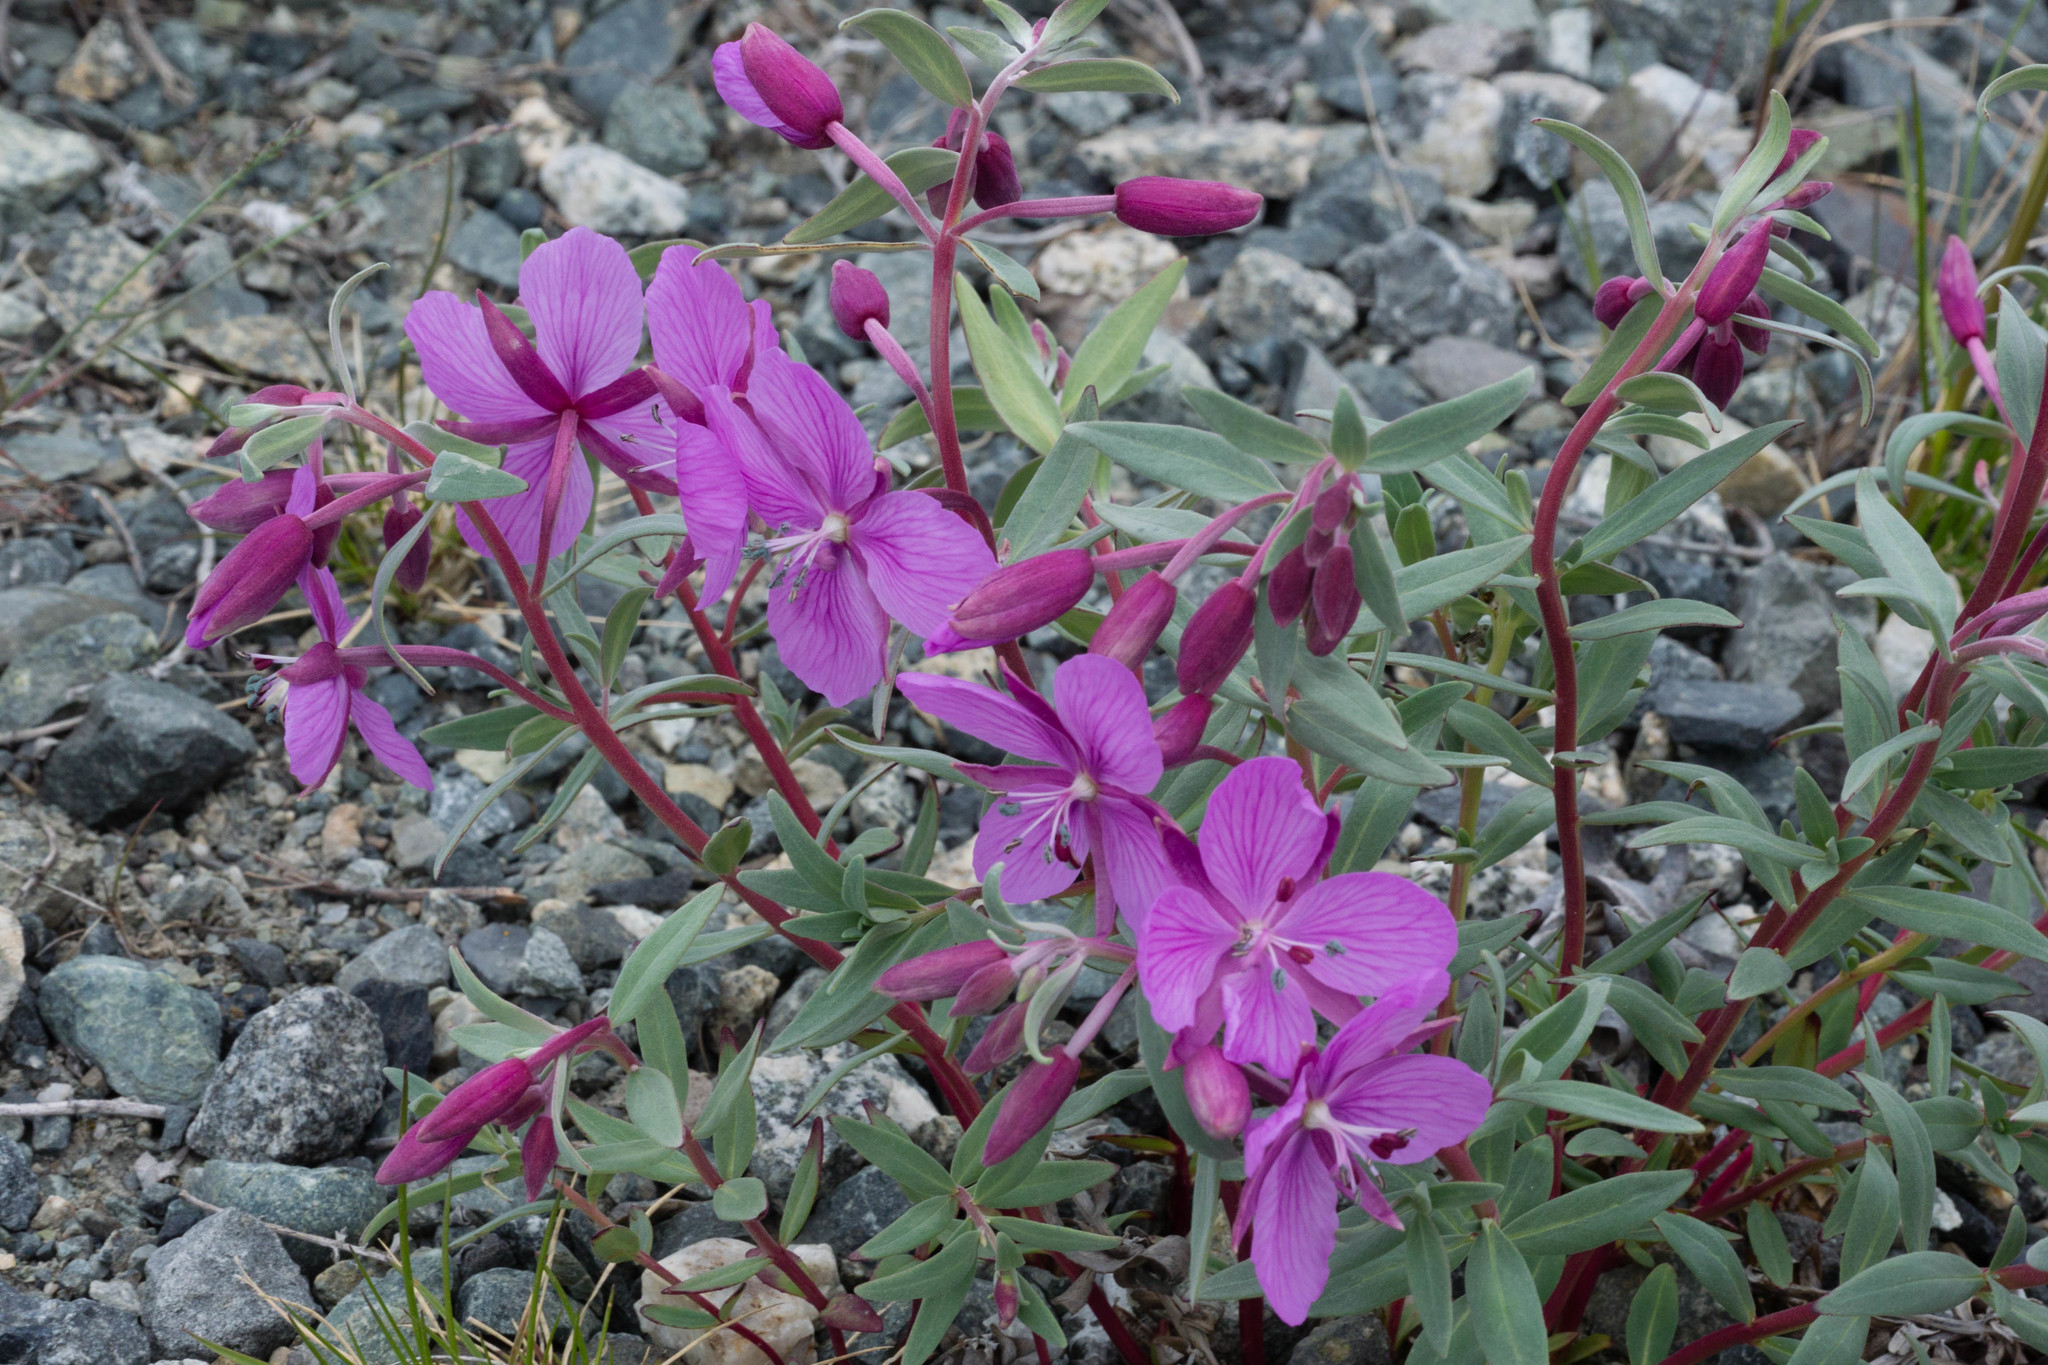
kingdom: Plantae
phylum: Tracheophyta
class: Magnoliopsida
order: Myrtales
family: Onagraceae
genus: Chamaenerion
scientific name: Chamaenerion latifolium
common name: Dwarf fireweed
